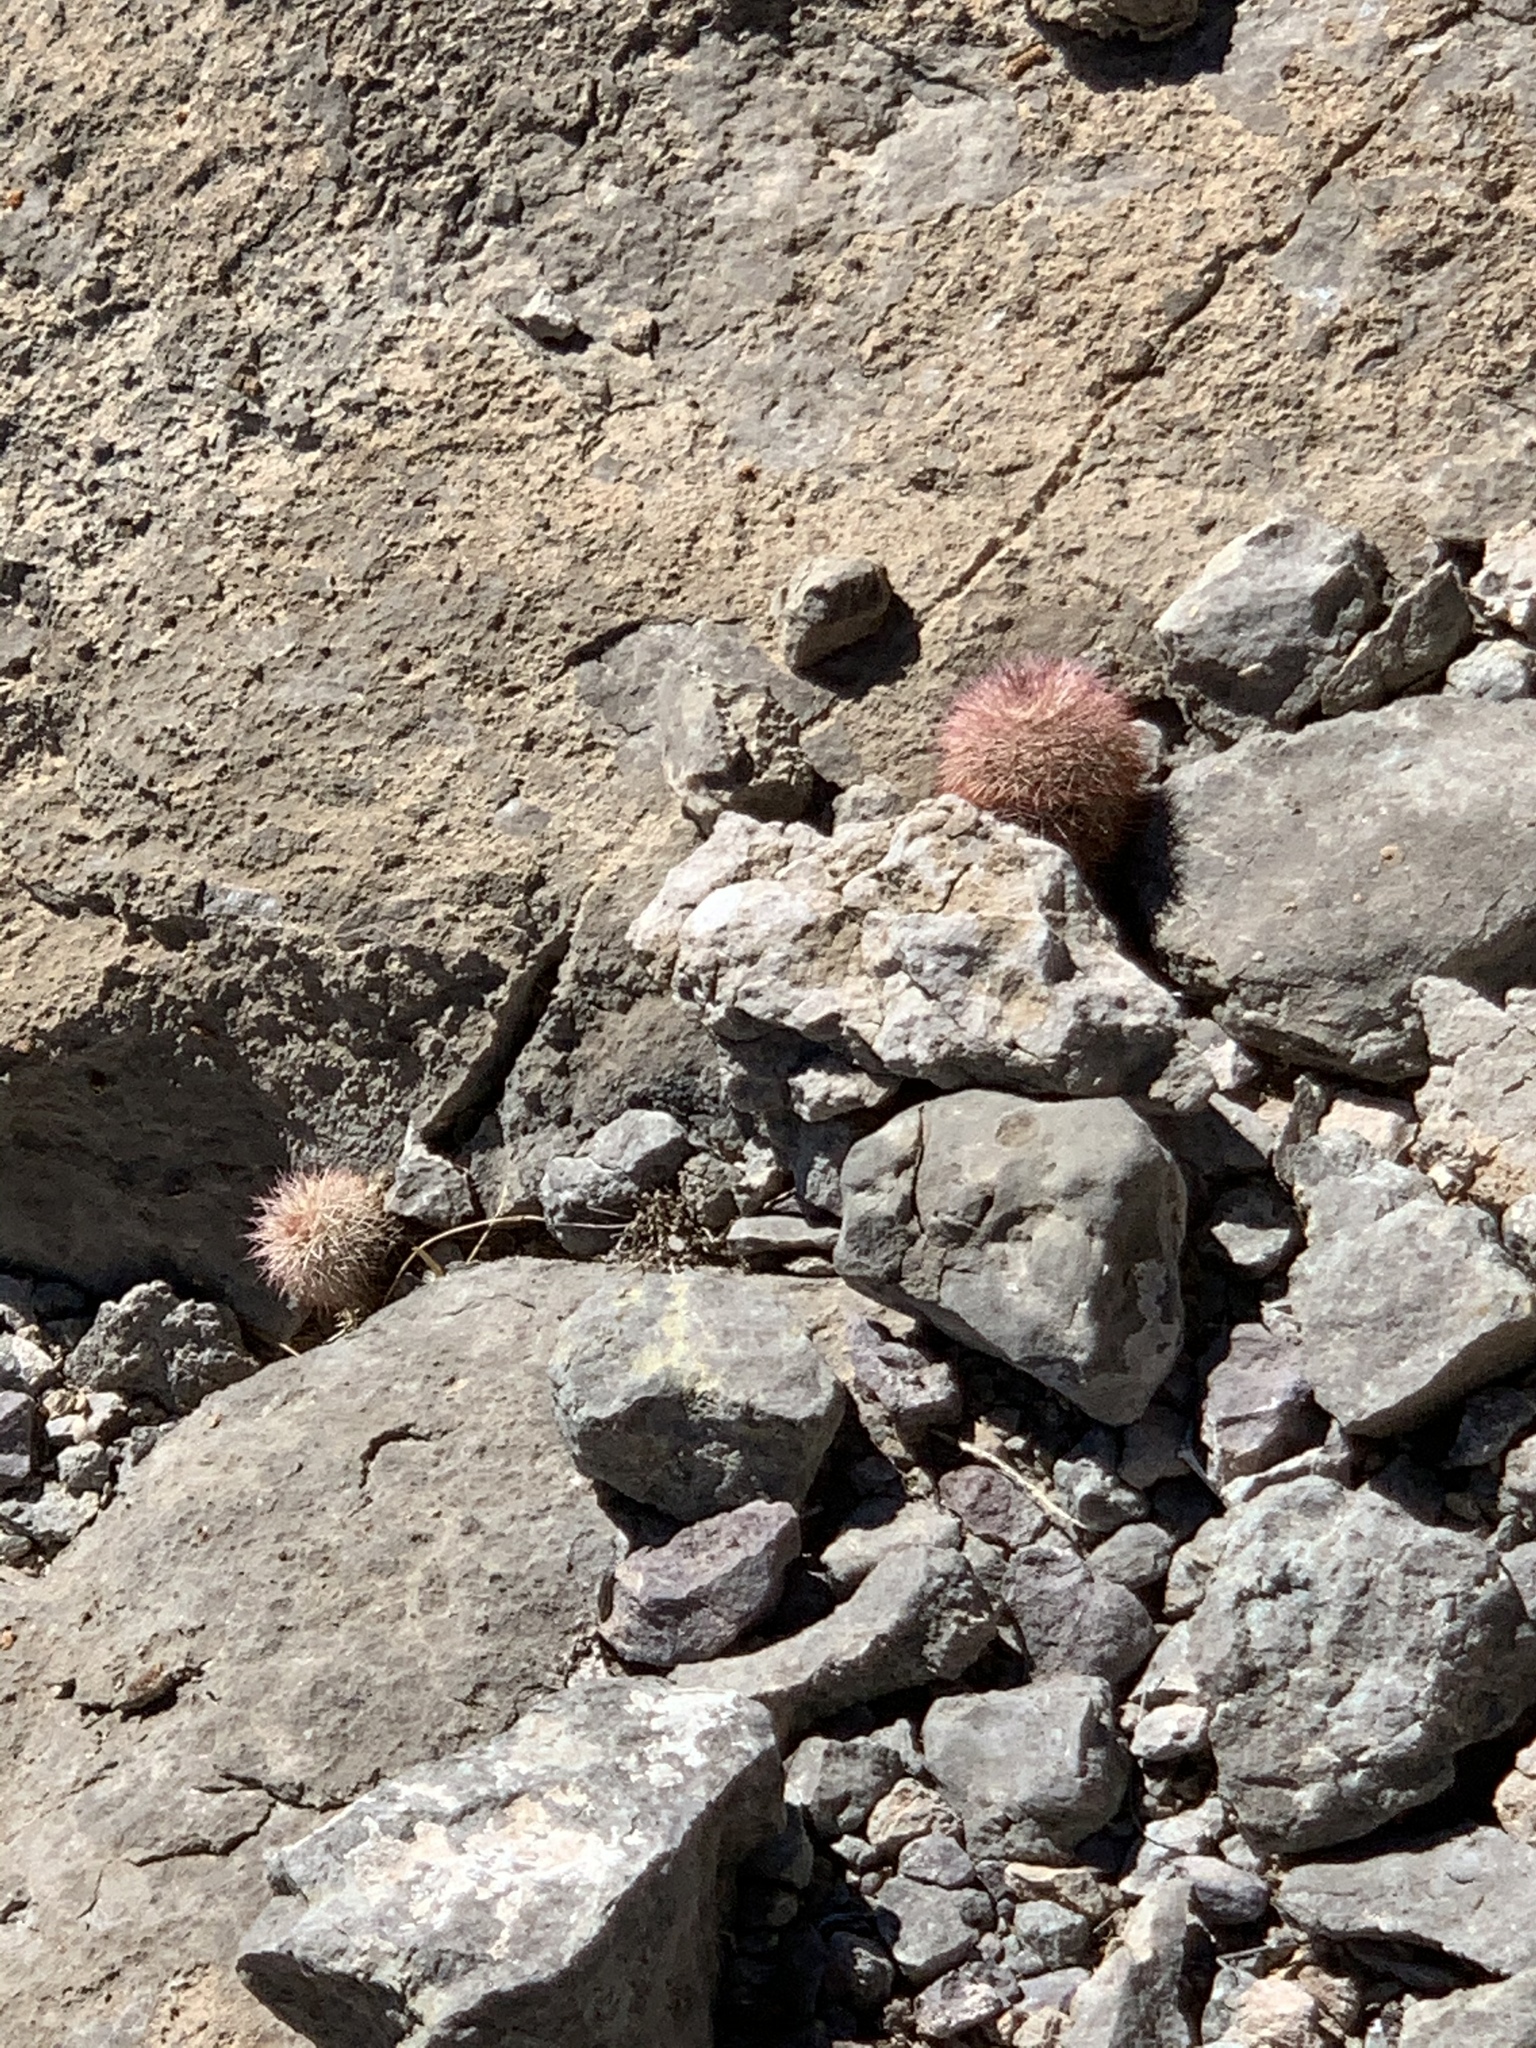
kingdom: Plantae
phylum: Tracheophyta
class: Magnoliopsida
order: Caryophyllales
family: Cactaceae
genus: Echinocereus
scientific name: Echinocereus dasyacanthus
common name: Spiny hedgehog cactus
